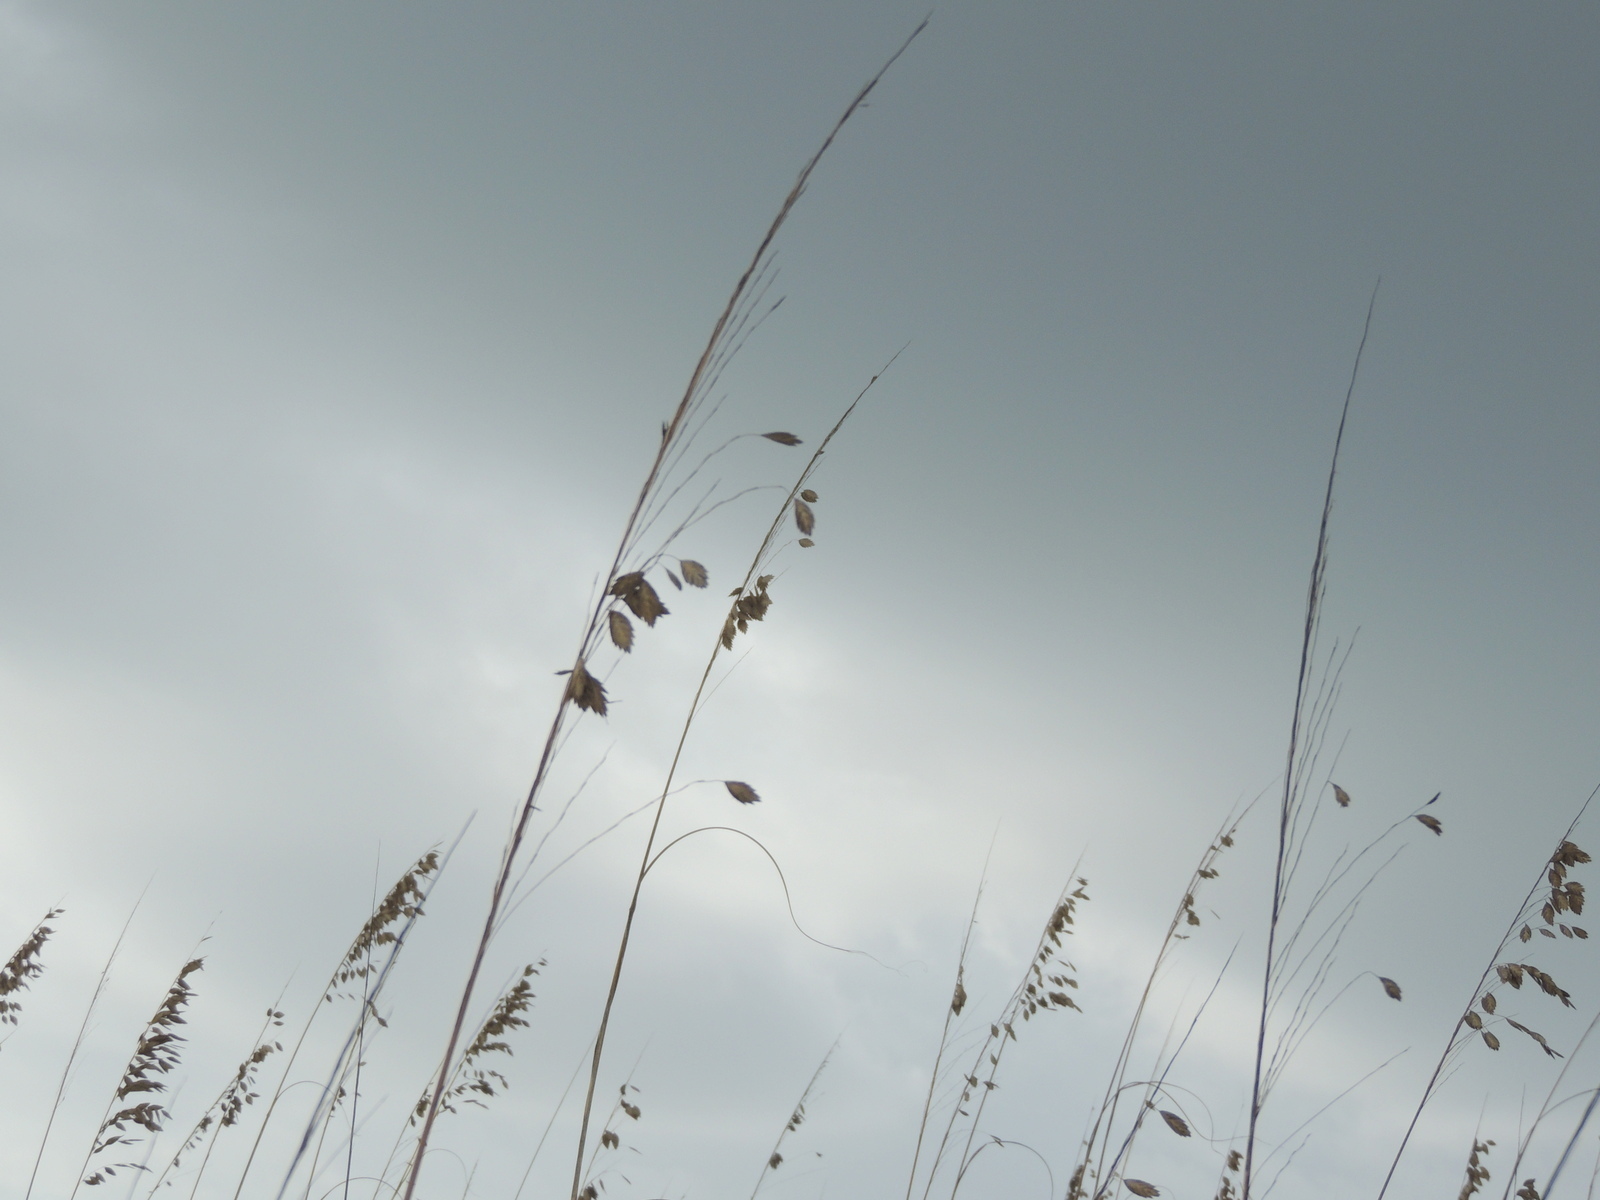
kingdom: Plantae
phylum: Tracheophyta
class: Liliopsida
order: Poales
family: Poaceae
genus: Uniola
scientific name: Uniola paniculata
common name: Seaside-oats
